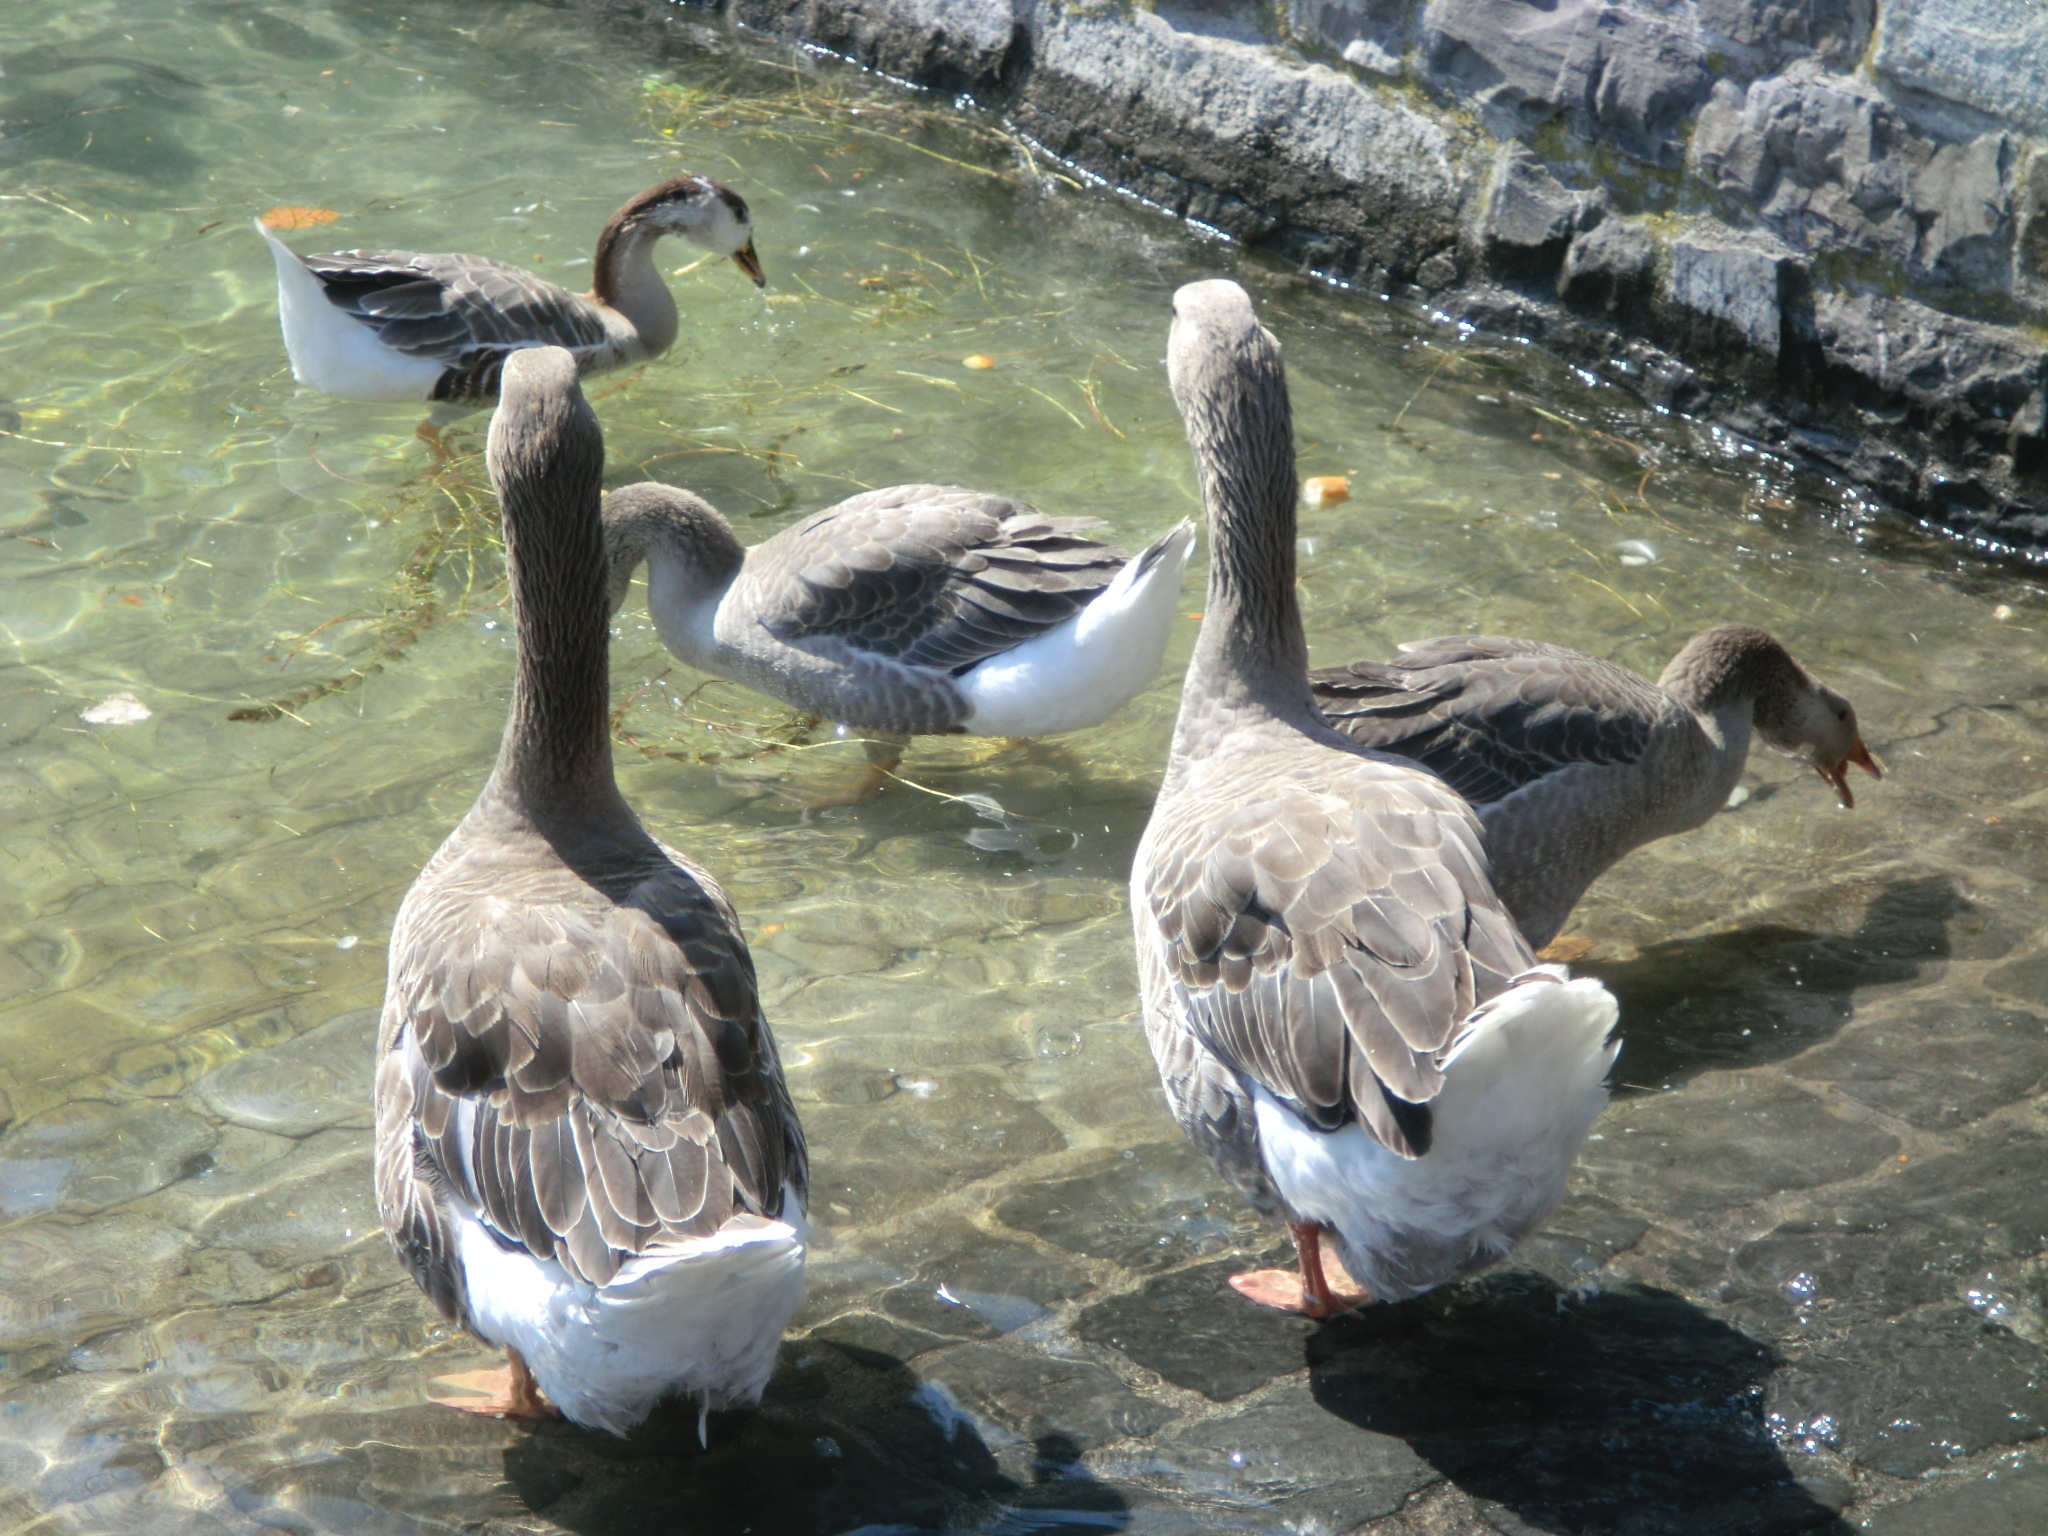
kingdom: Animalia
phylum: Chordata
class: Aves
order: Anseriformes
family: Anatidae
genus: Anser
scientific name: Anser anser
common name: Greylag goose
